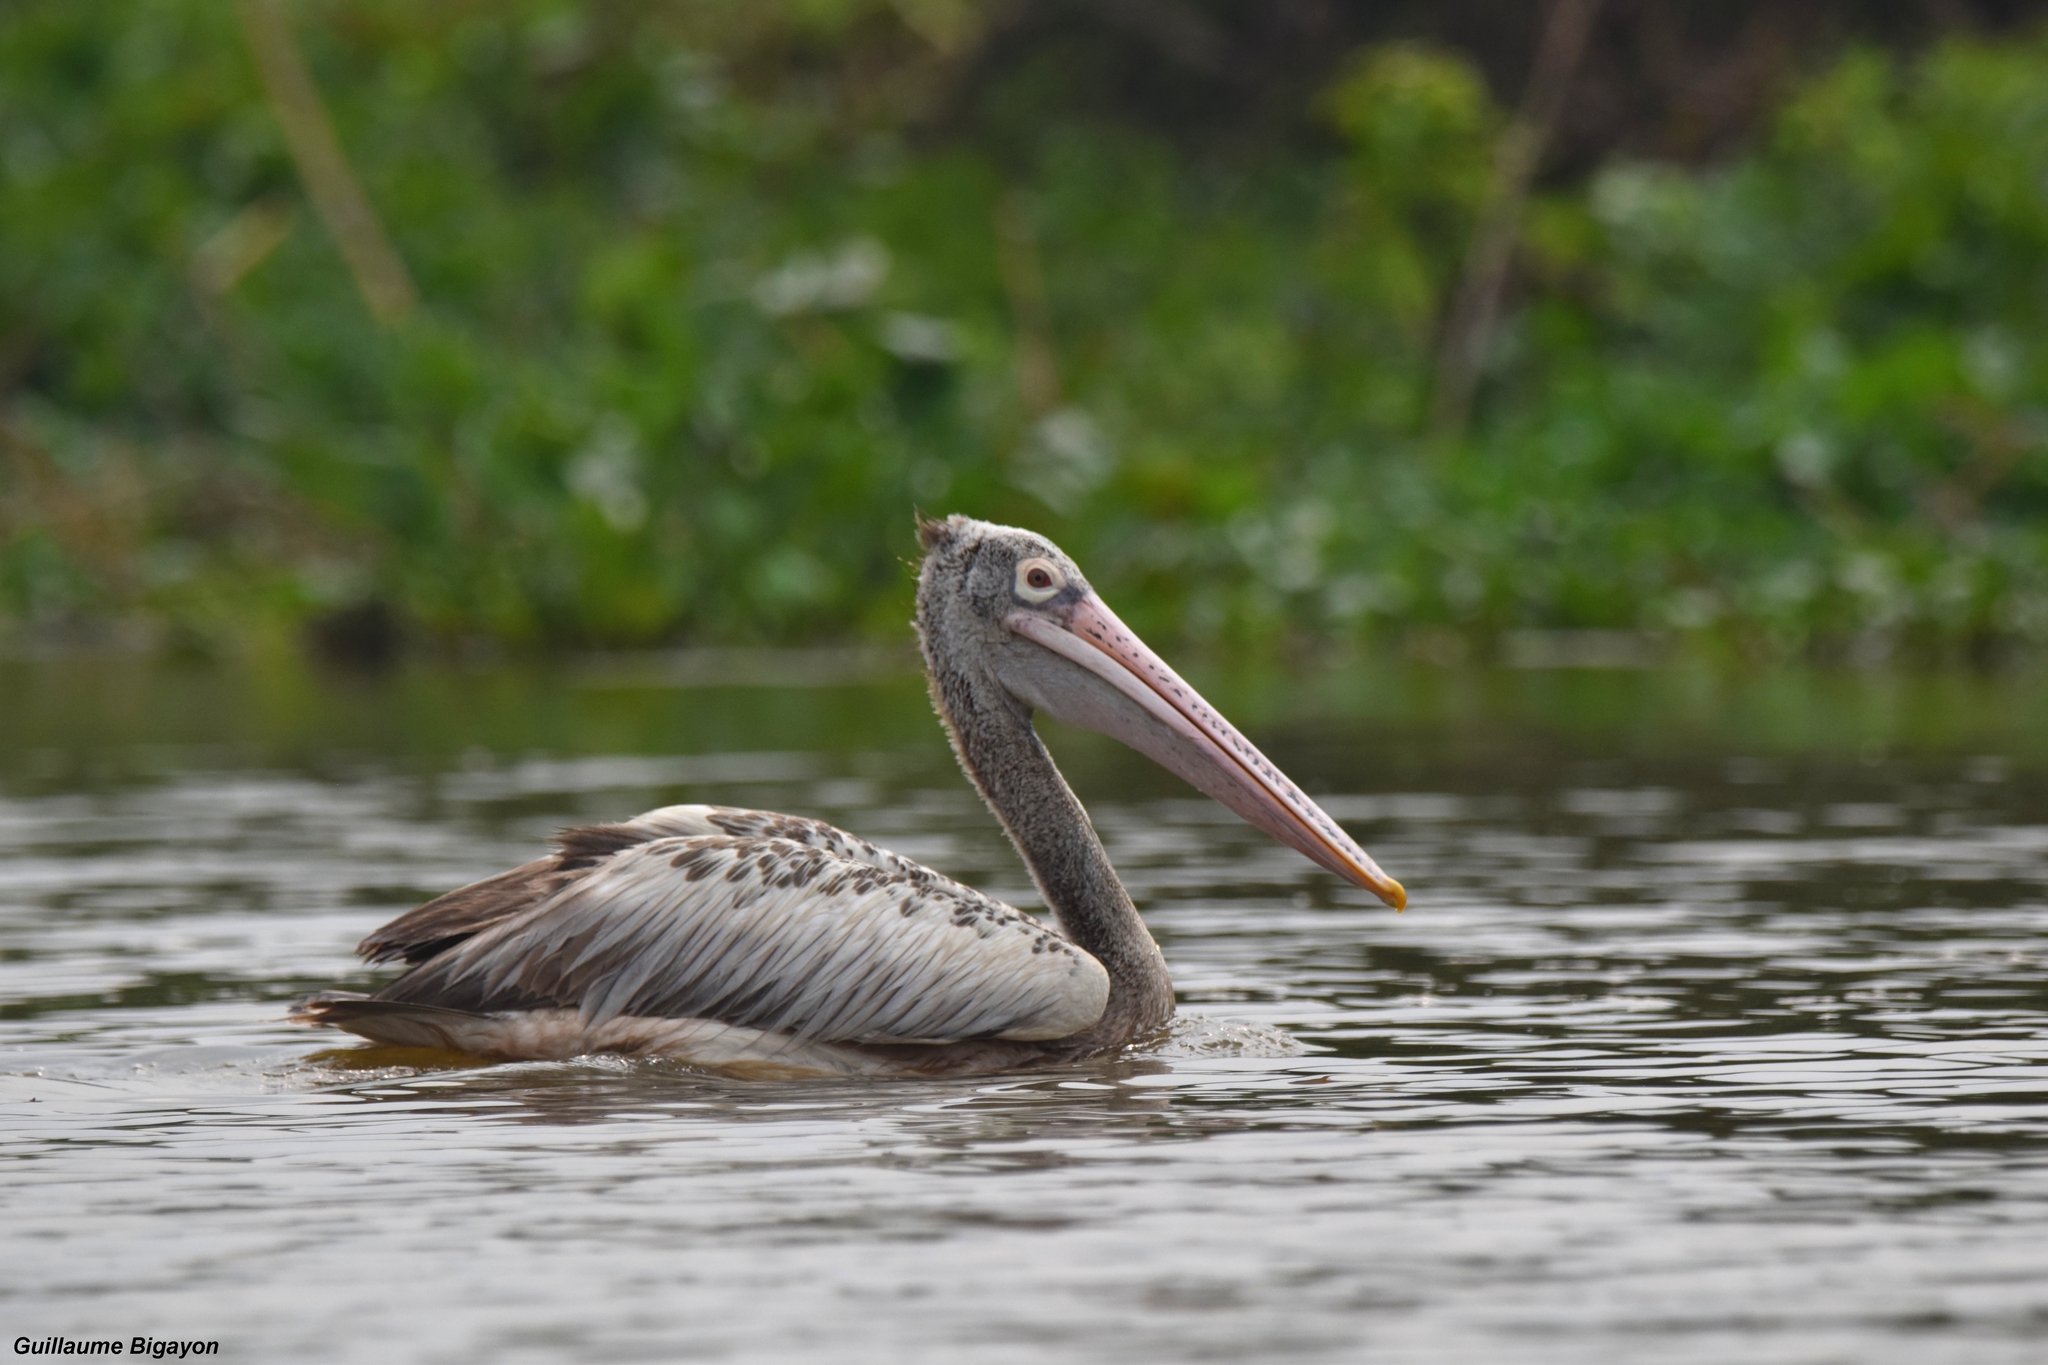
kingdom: Animalia
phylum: Chordata
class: Aves
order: Pelecaniformes
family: Pelecanidae
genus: Pelecanus
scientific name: Pelecanus philippensis
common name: Spot-billed pelican
